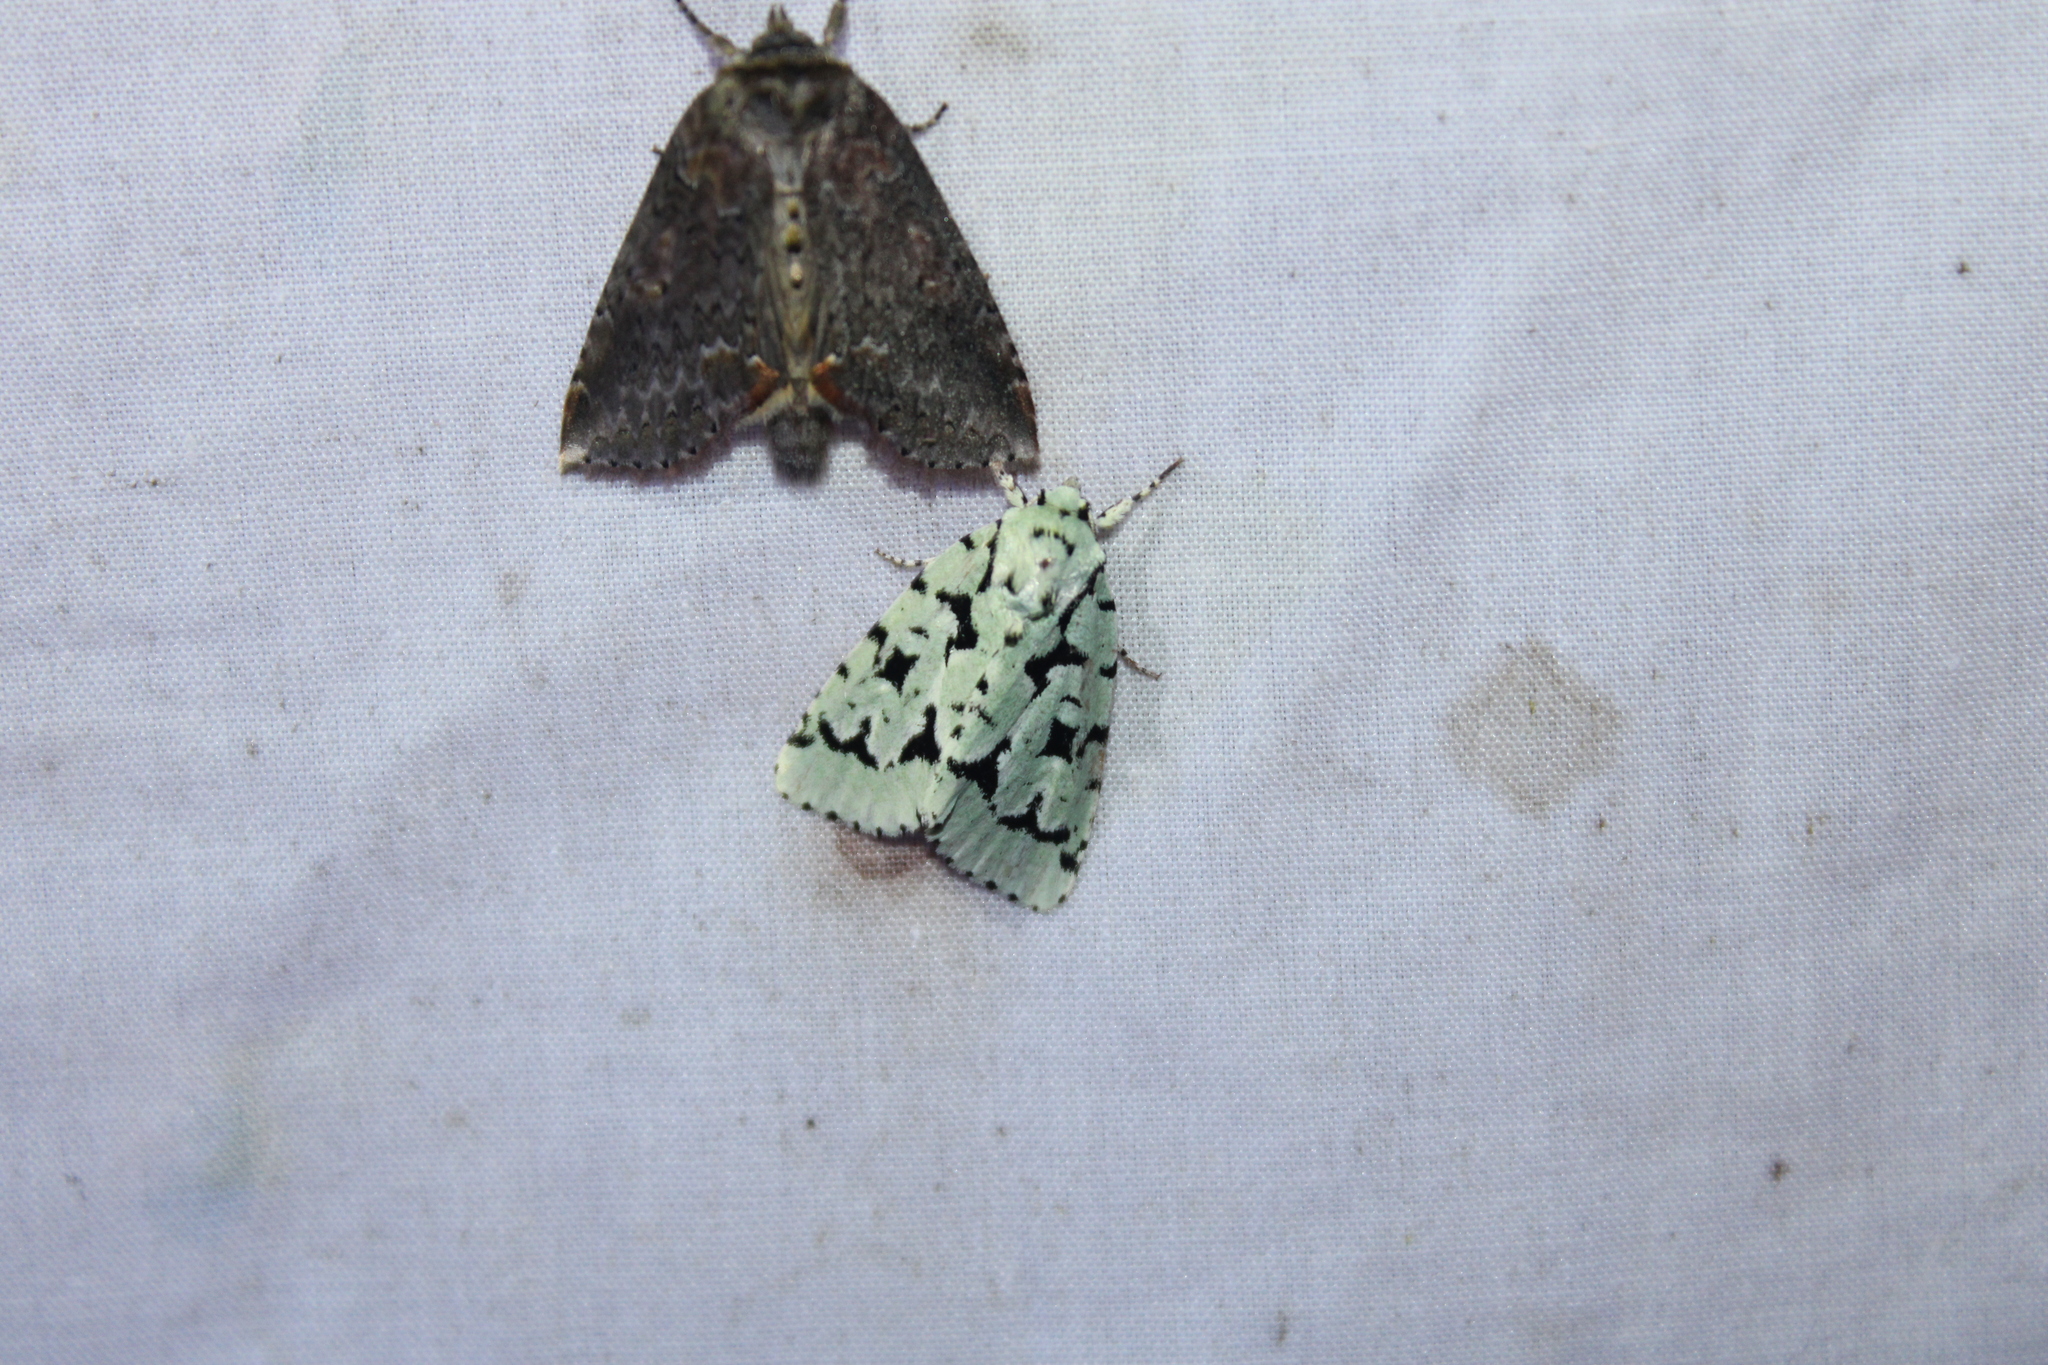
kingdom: Animalia
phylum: Arthropoda
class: Insecta
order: Lepidoptera
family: Noctuidae
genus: Acronicta
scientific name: Acronicta fallax
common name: Green marvel
